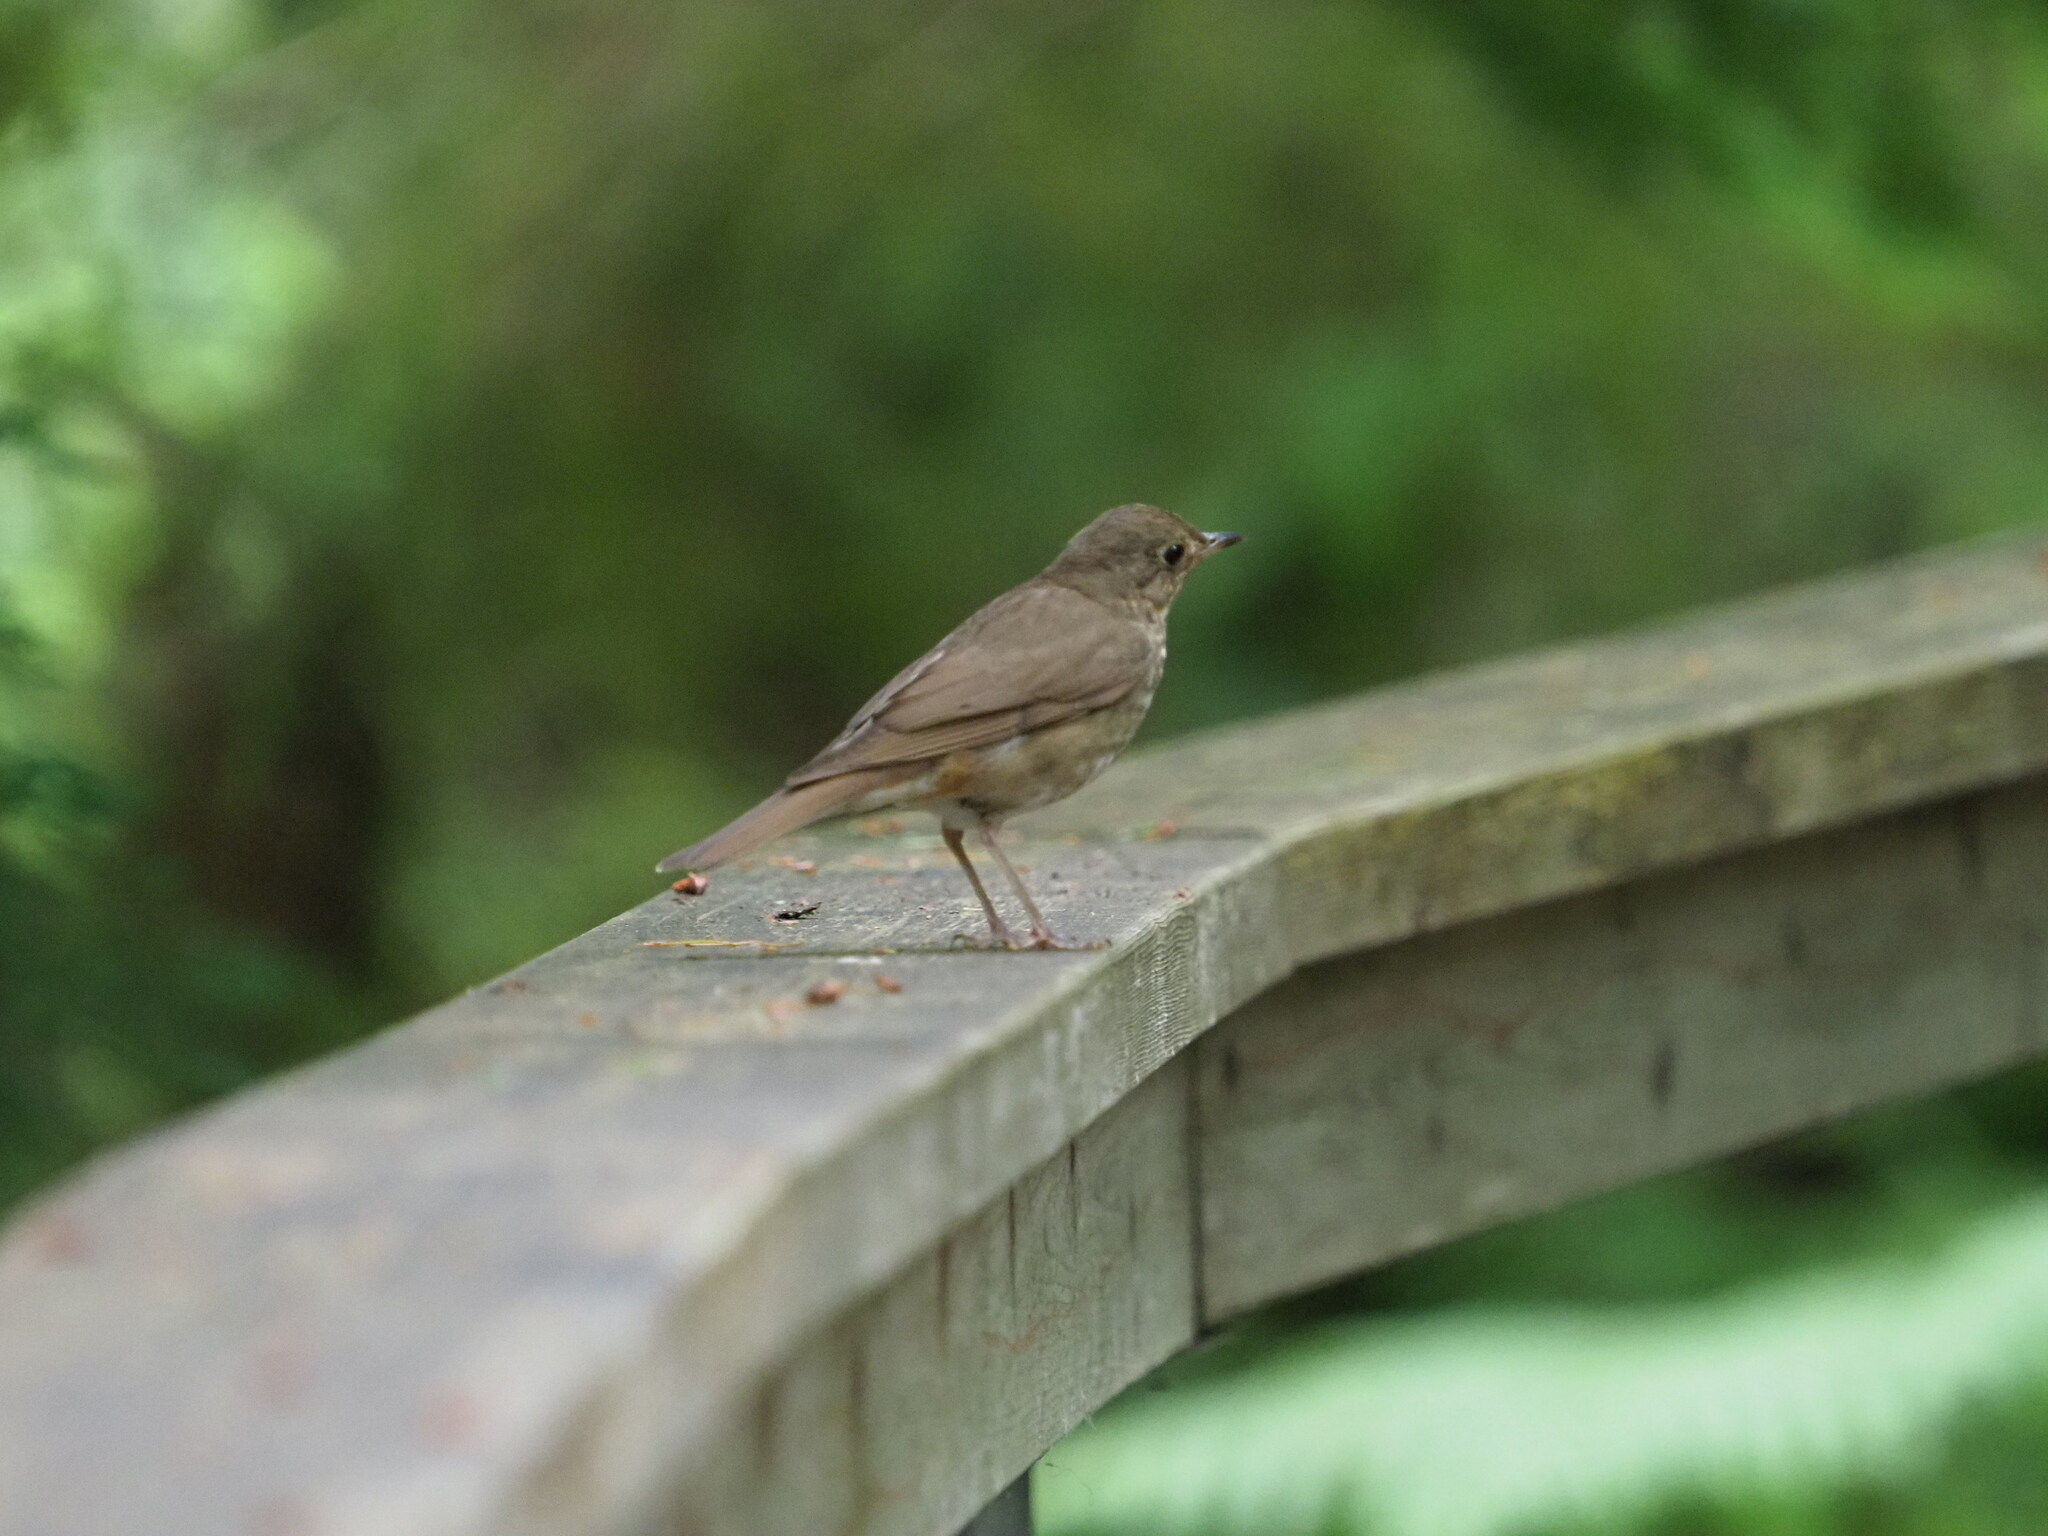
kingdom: Animalia
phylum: Chordata
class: Aves
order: Passeriformes
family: Turdidae
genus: Catharus
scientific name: Catharus ustulatus
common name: Swainson's thrush
